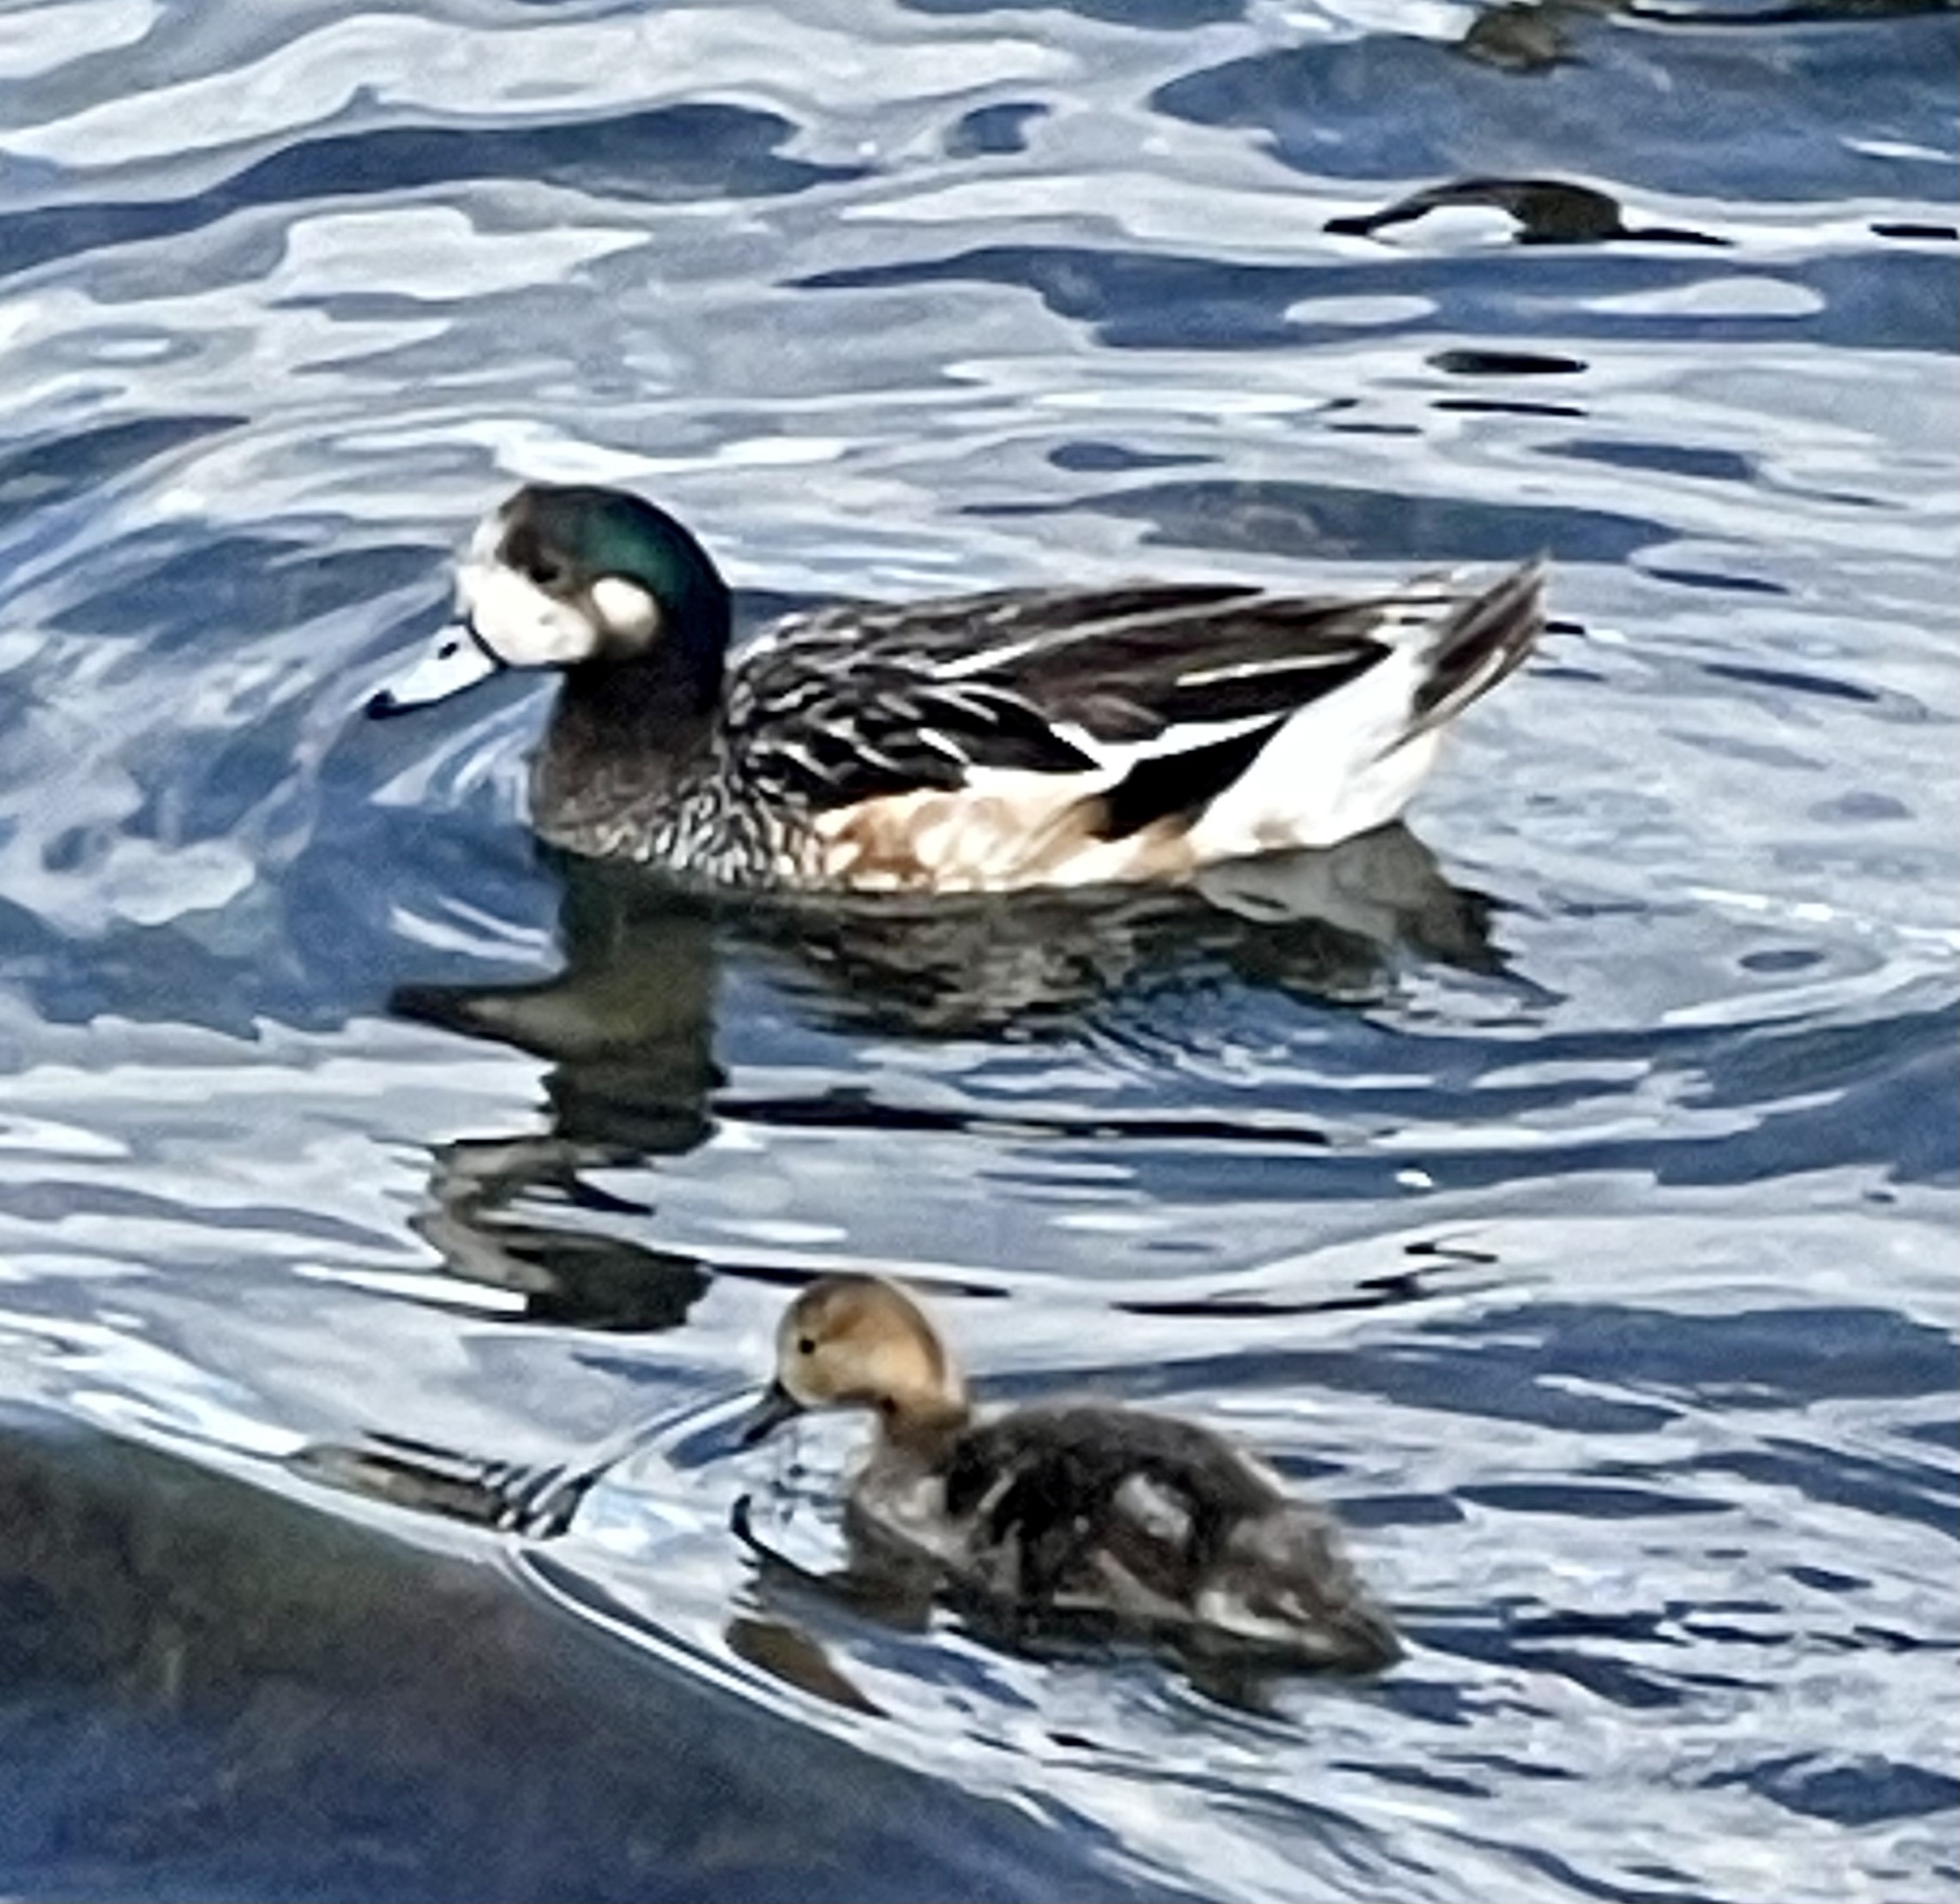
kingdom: Animalia
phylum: Chordata
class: Aves
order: Anseriformes
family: Anatidae
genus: Mareca
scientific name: Mareca sibilatrix
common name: Chiloe wigeon
